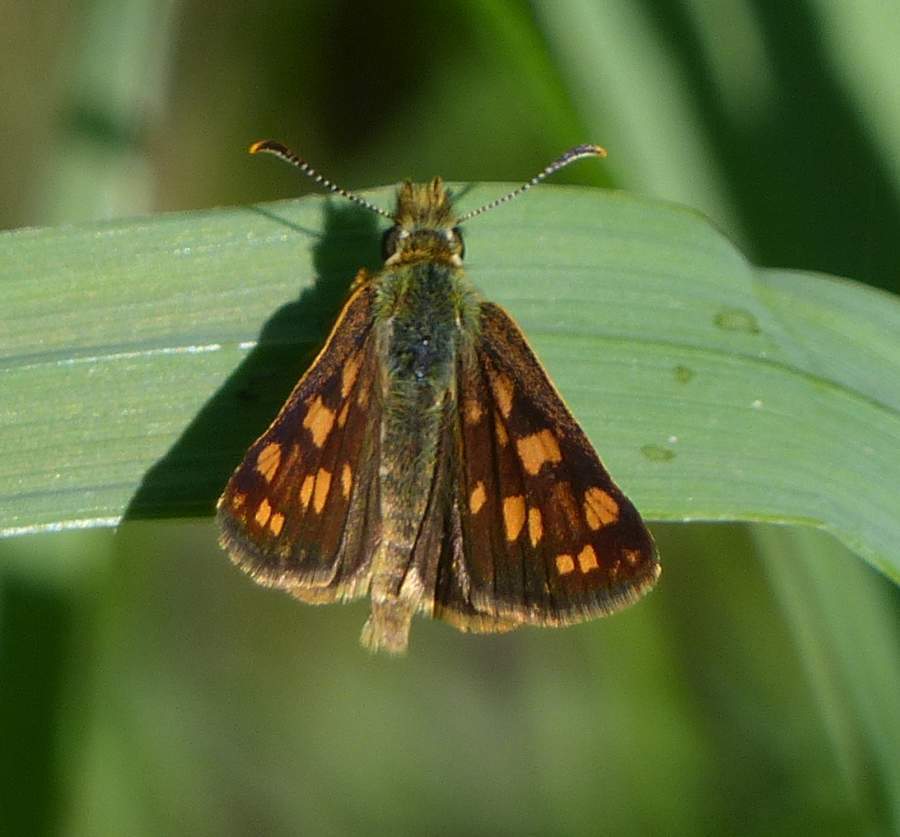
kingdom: Animalia
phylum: Arthropoda
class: Insecta
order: Lepidoptera
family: Hesperiidae
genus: Carterocephalus
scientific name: Carterocephalus mandan
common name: Arctic skipperling
